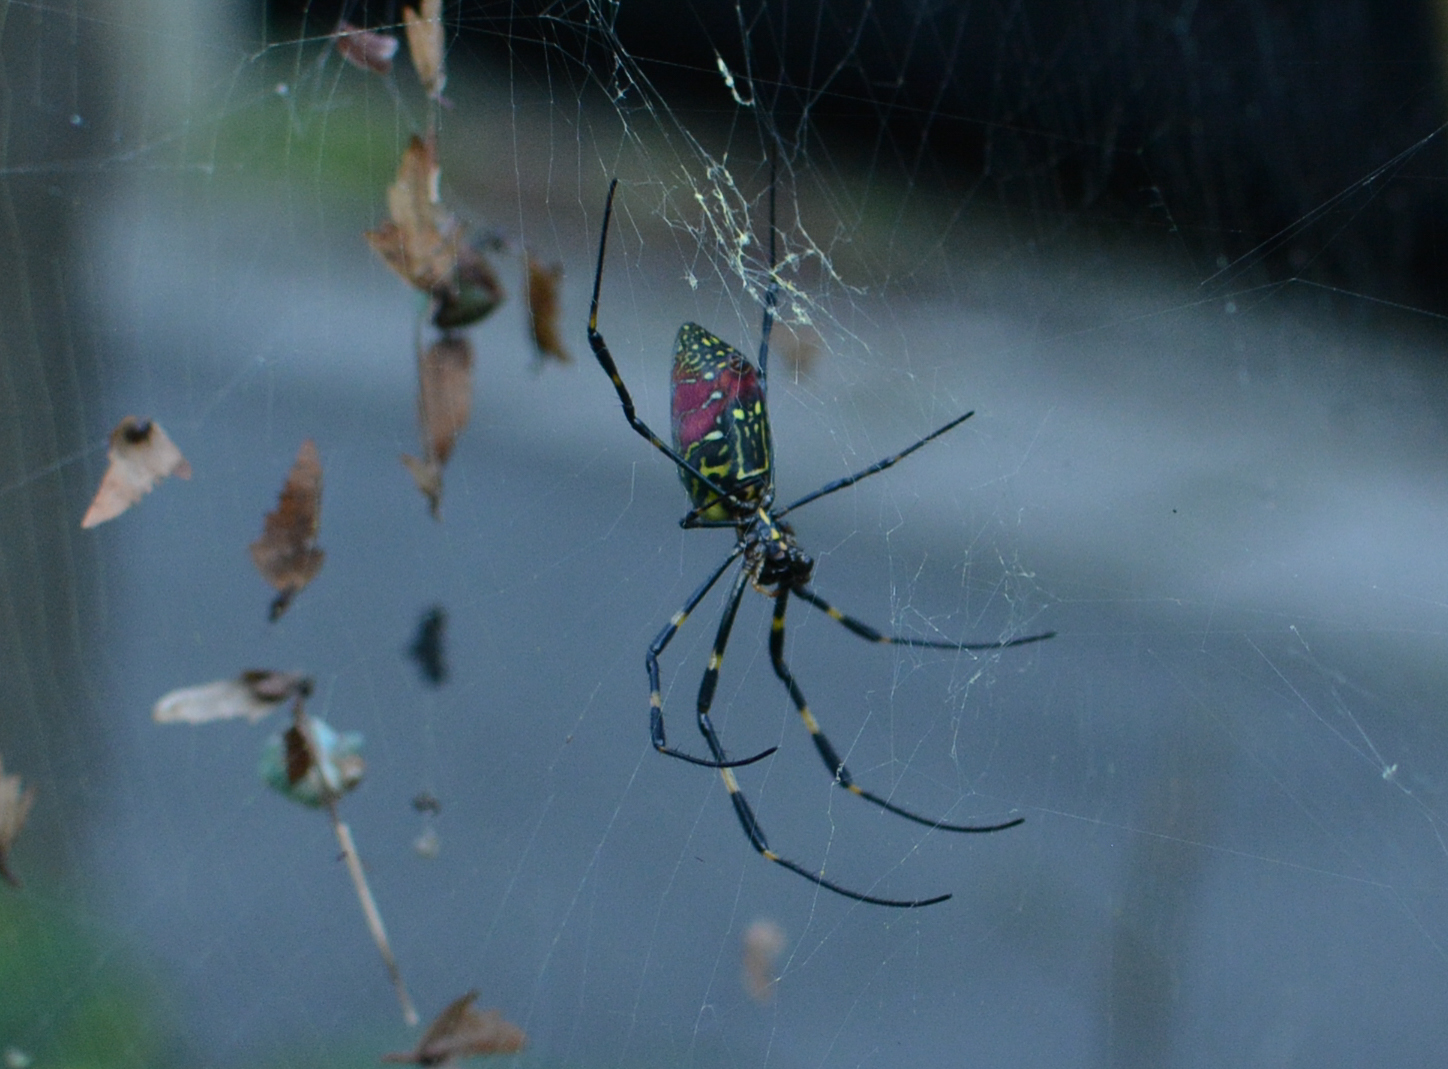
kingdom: Animalia
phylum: Arthropoda
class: Arachnida
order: Araneae
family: Araneidae
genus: Trichonephila
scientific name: Trichonephila clavata
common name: Jorō spider
